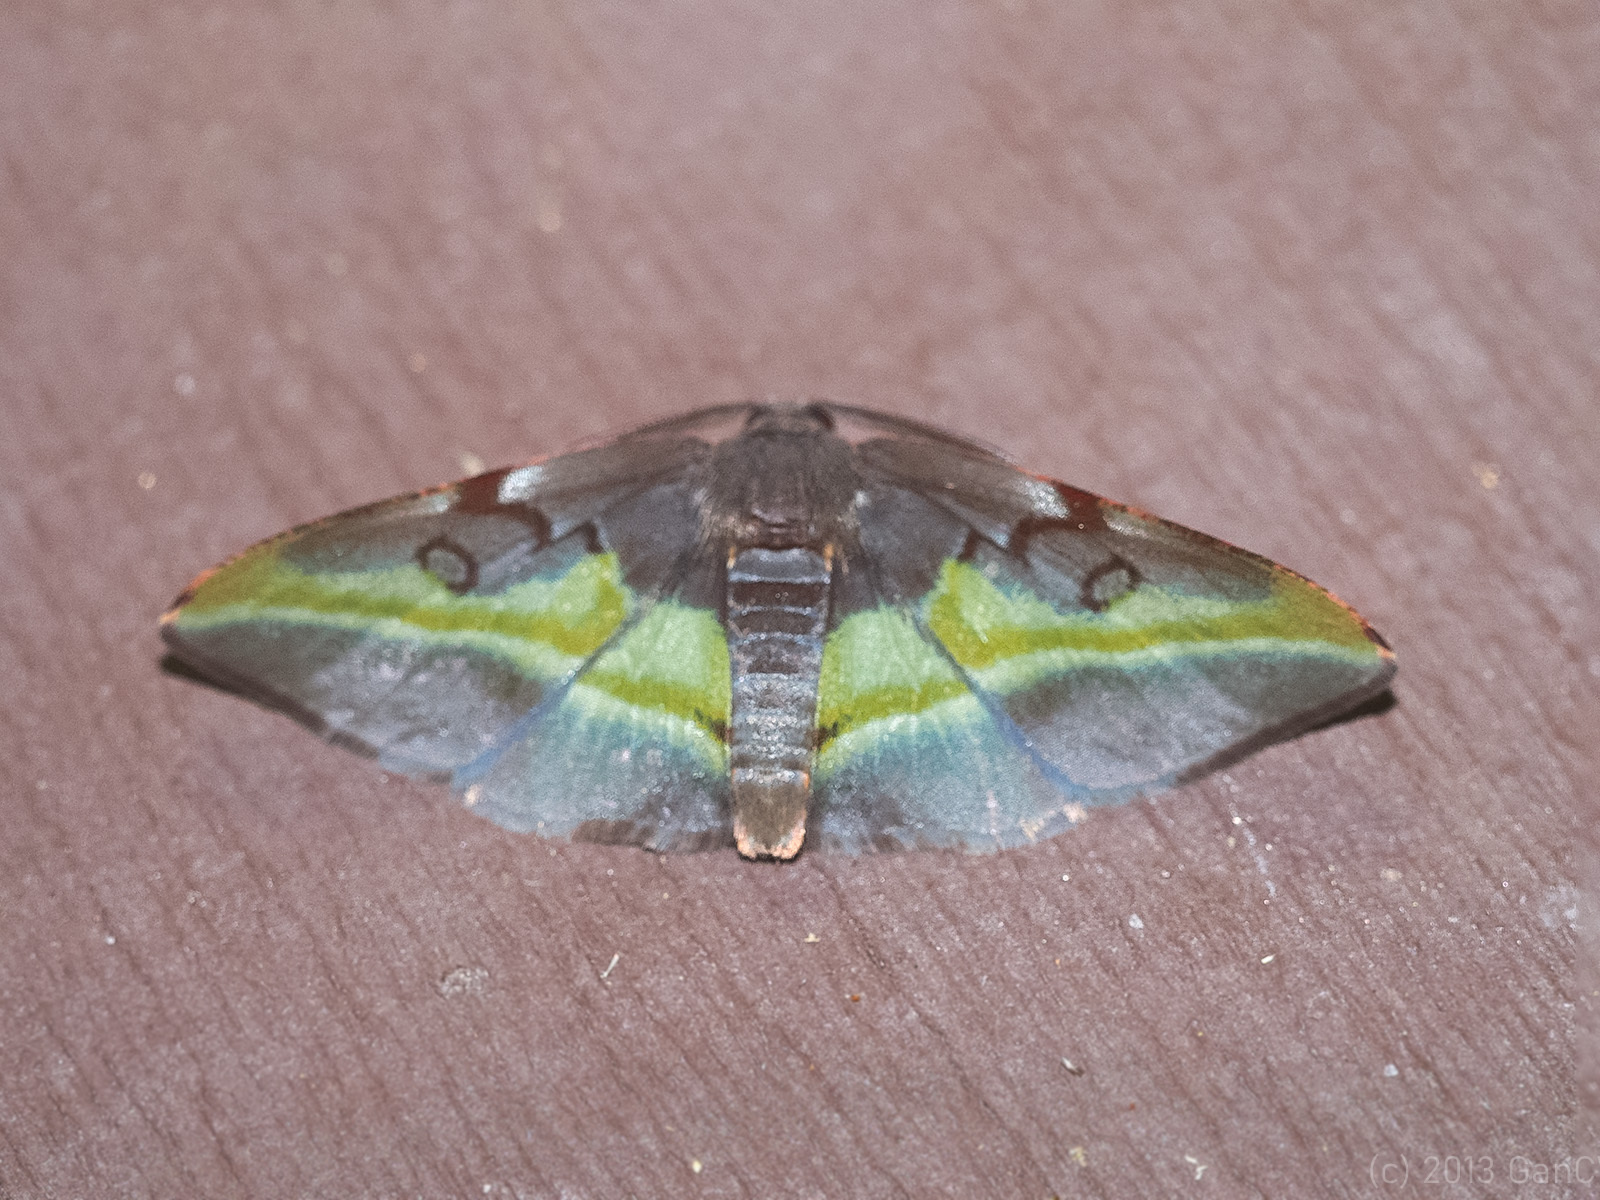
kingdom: Animalia
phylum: Arthropoda
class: Insecta
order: Lepidoptera
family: Geometridae
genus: Hypochrosis
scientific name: Hypochrosis cryptopyrrhata
